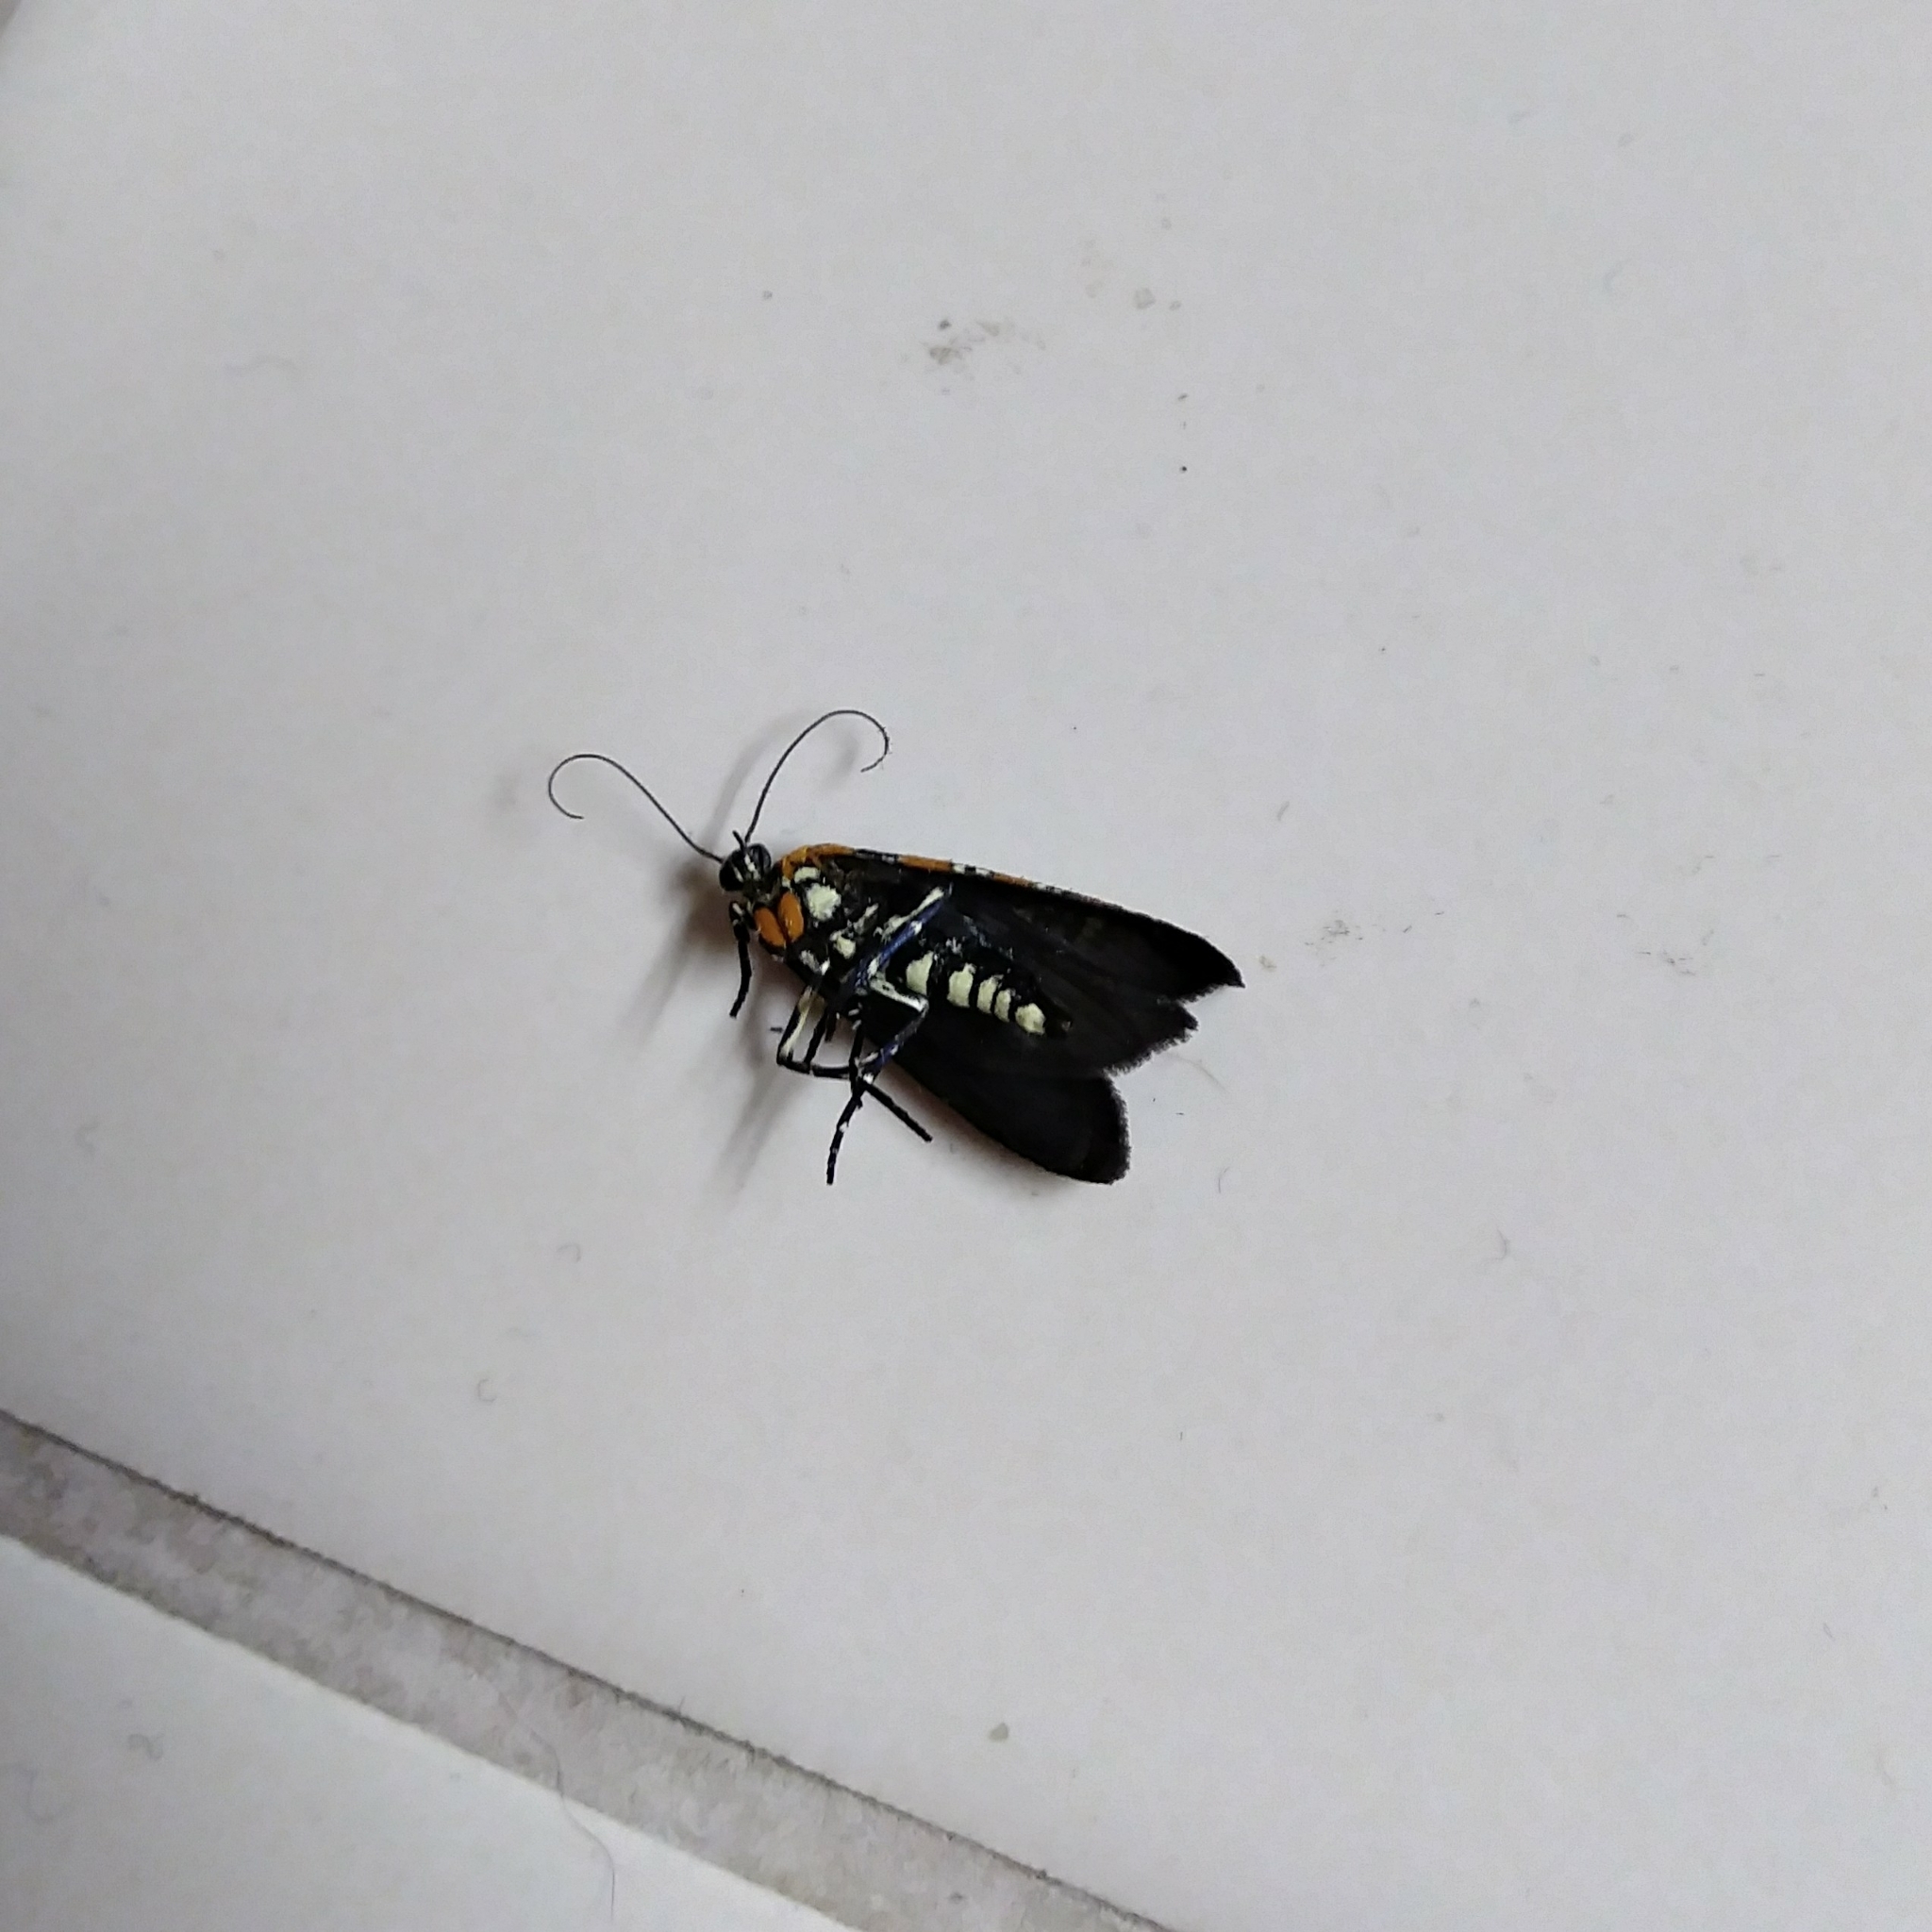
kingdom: Animalia
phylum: Arthropoda
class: Insecta
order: Lepidoptera
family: Attevidae
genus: Atteva
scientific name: Atteva punctella
